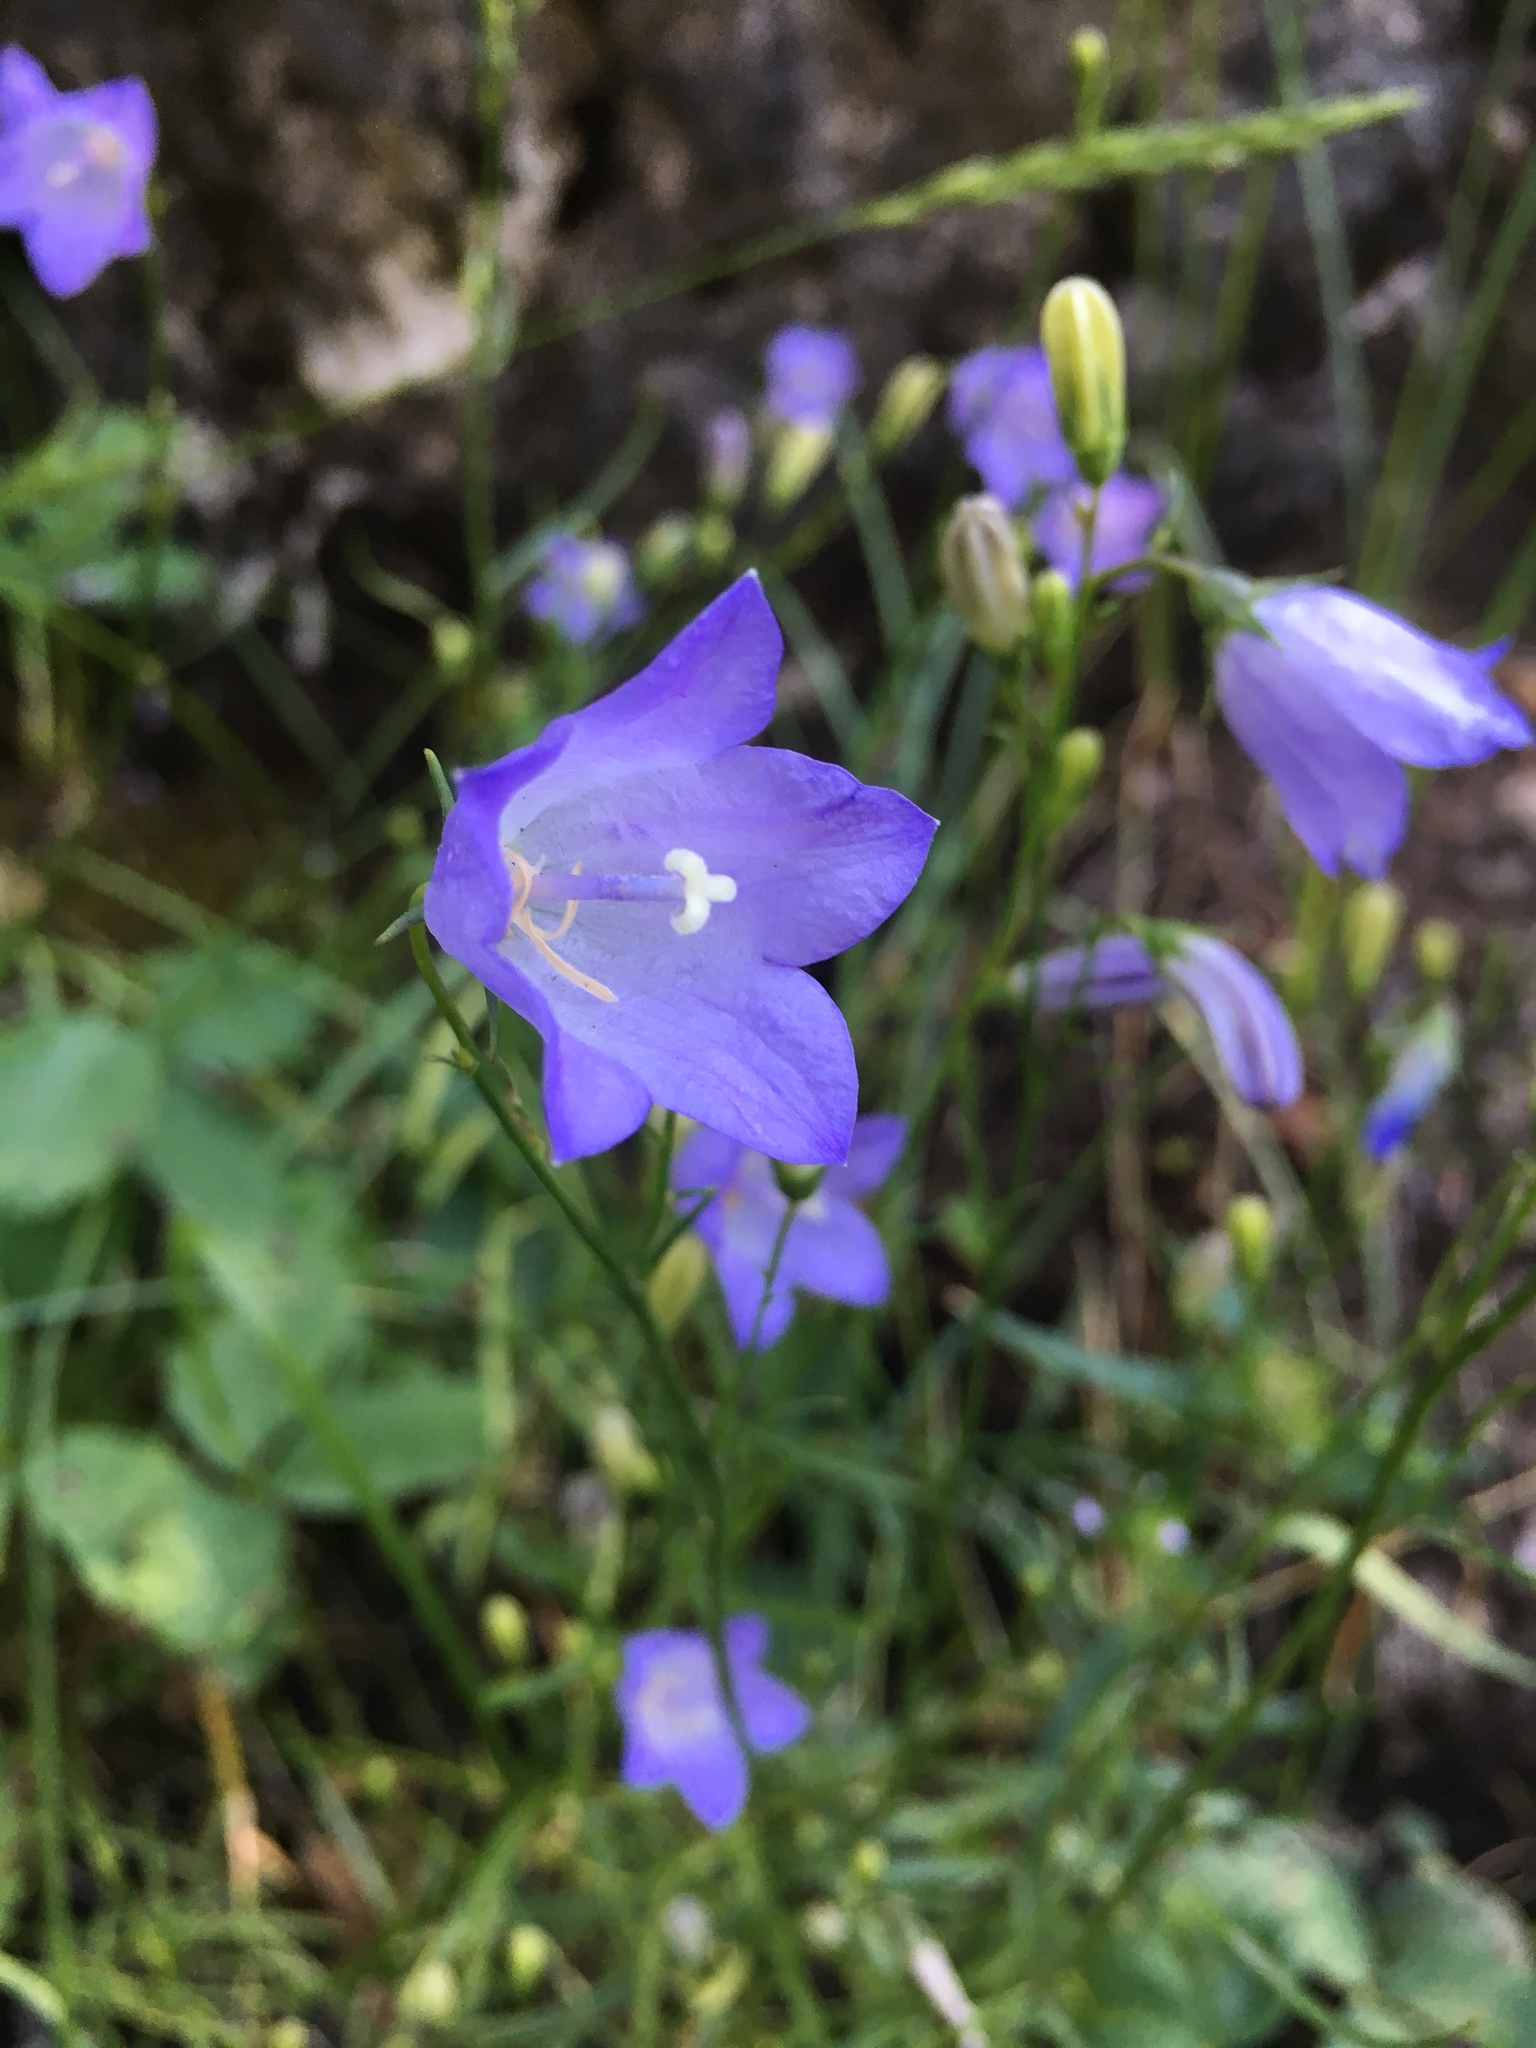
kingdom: Plantae
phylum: Tracheophyta
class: Magnoliopsida
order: Asterales
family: Campanulaceae
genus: Campanula
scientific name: Campanula petiolata
